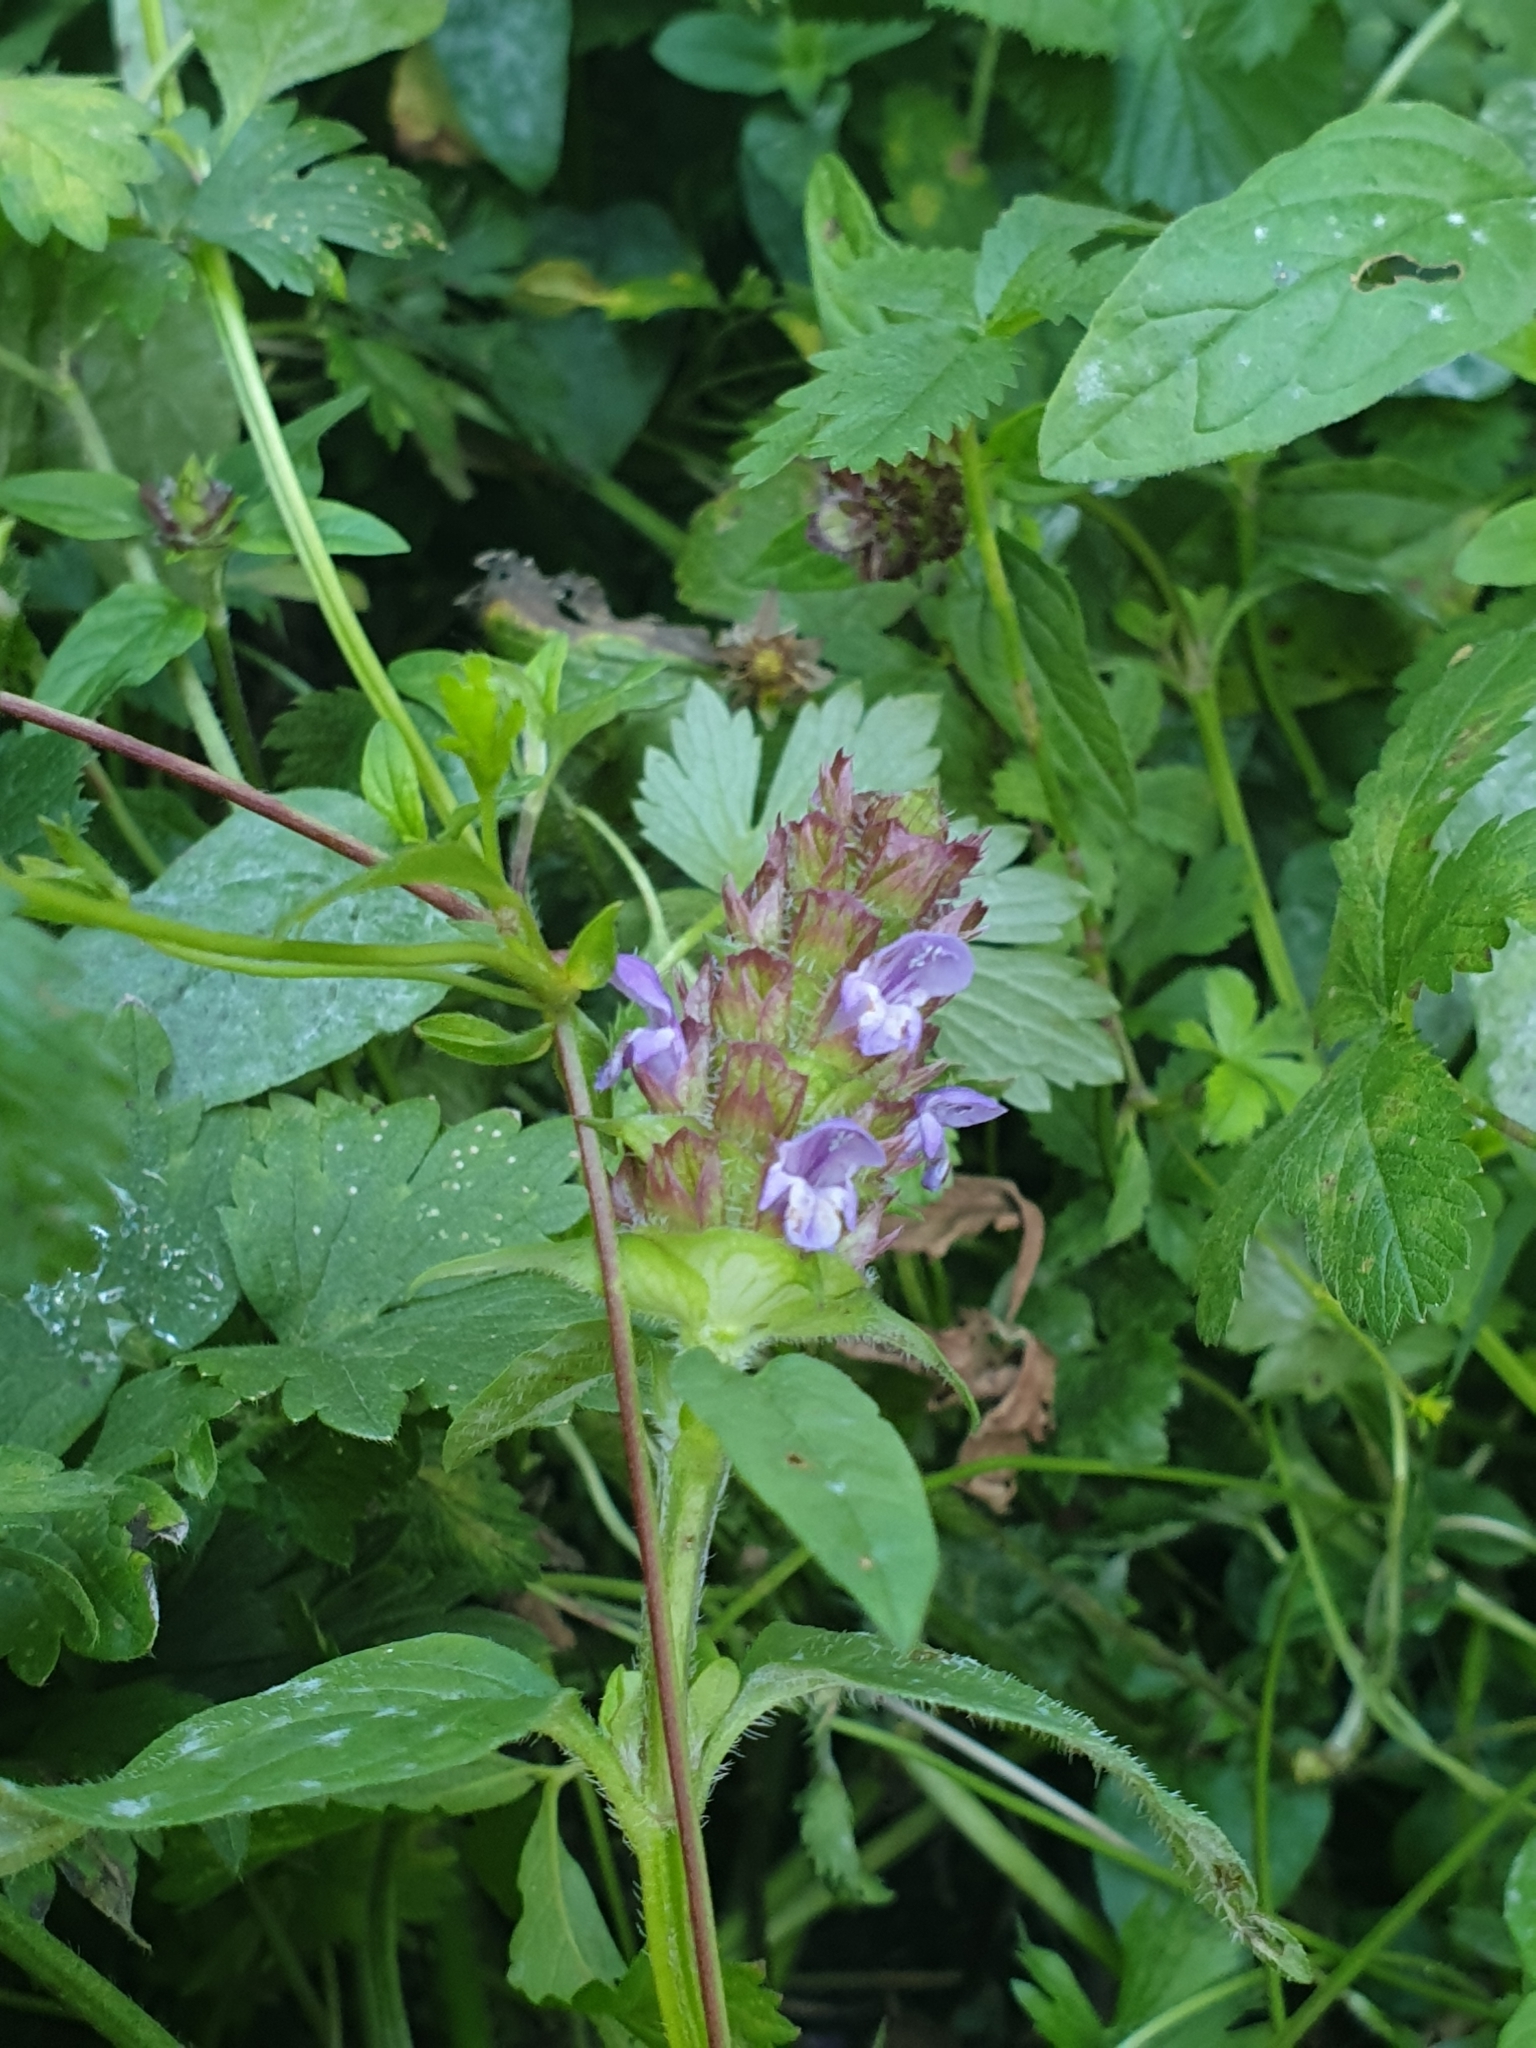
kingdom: Plantae
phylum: Tracheophyta
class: Magnoliopsida
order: Lamiales
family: Lamiaceae
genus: Prunella
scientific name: Prunella vulgaris
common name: Heal-all
